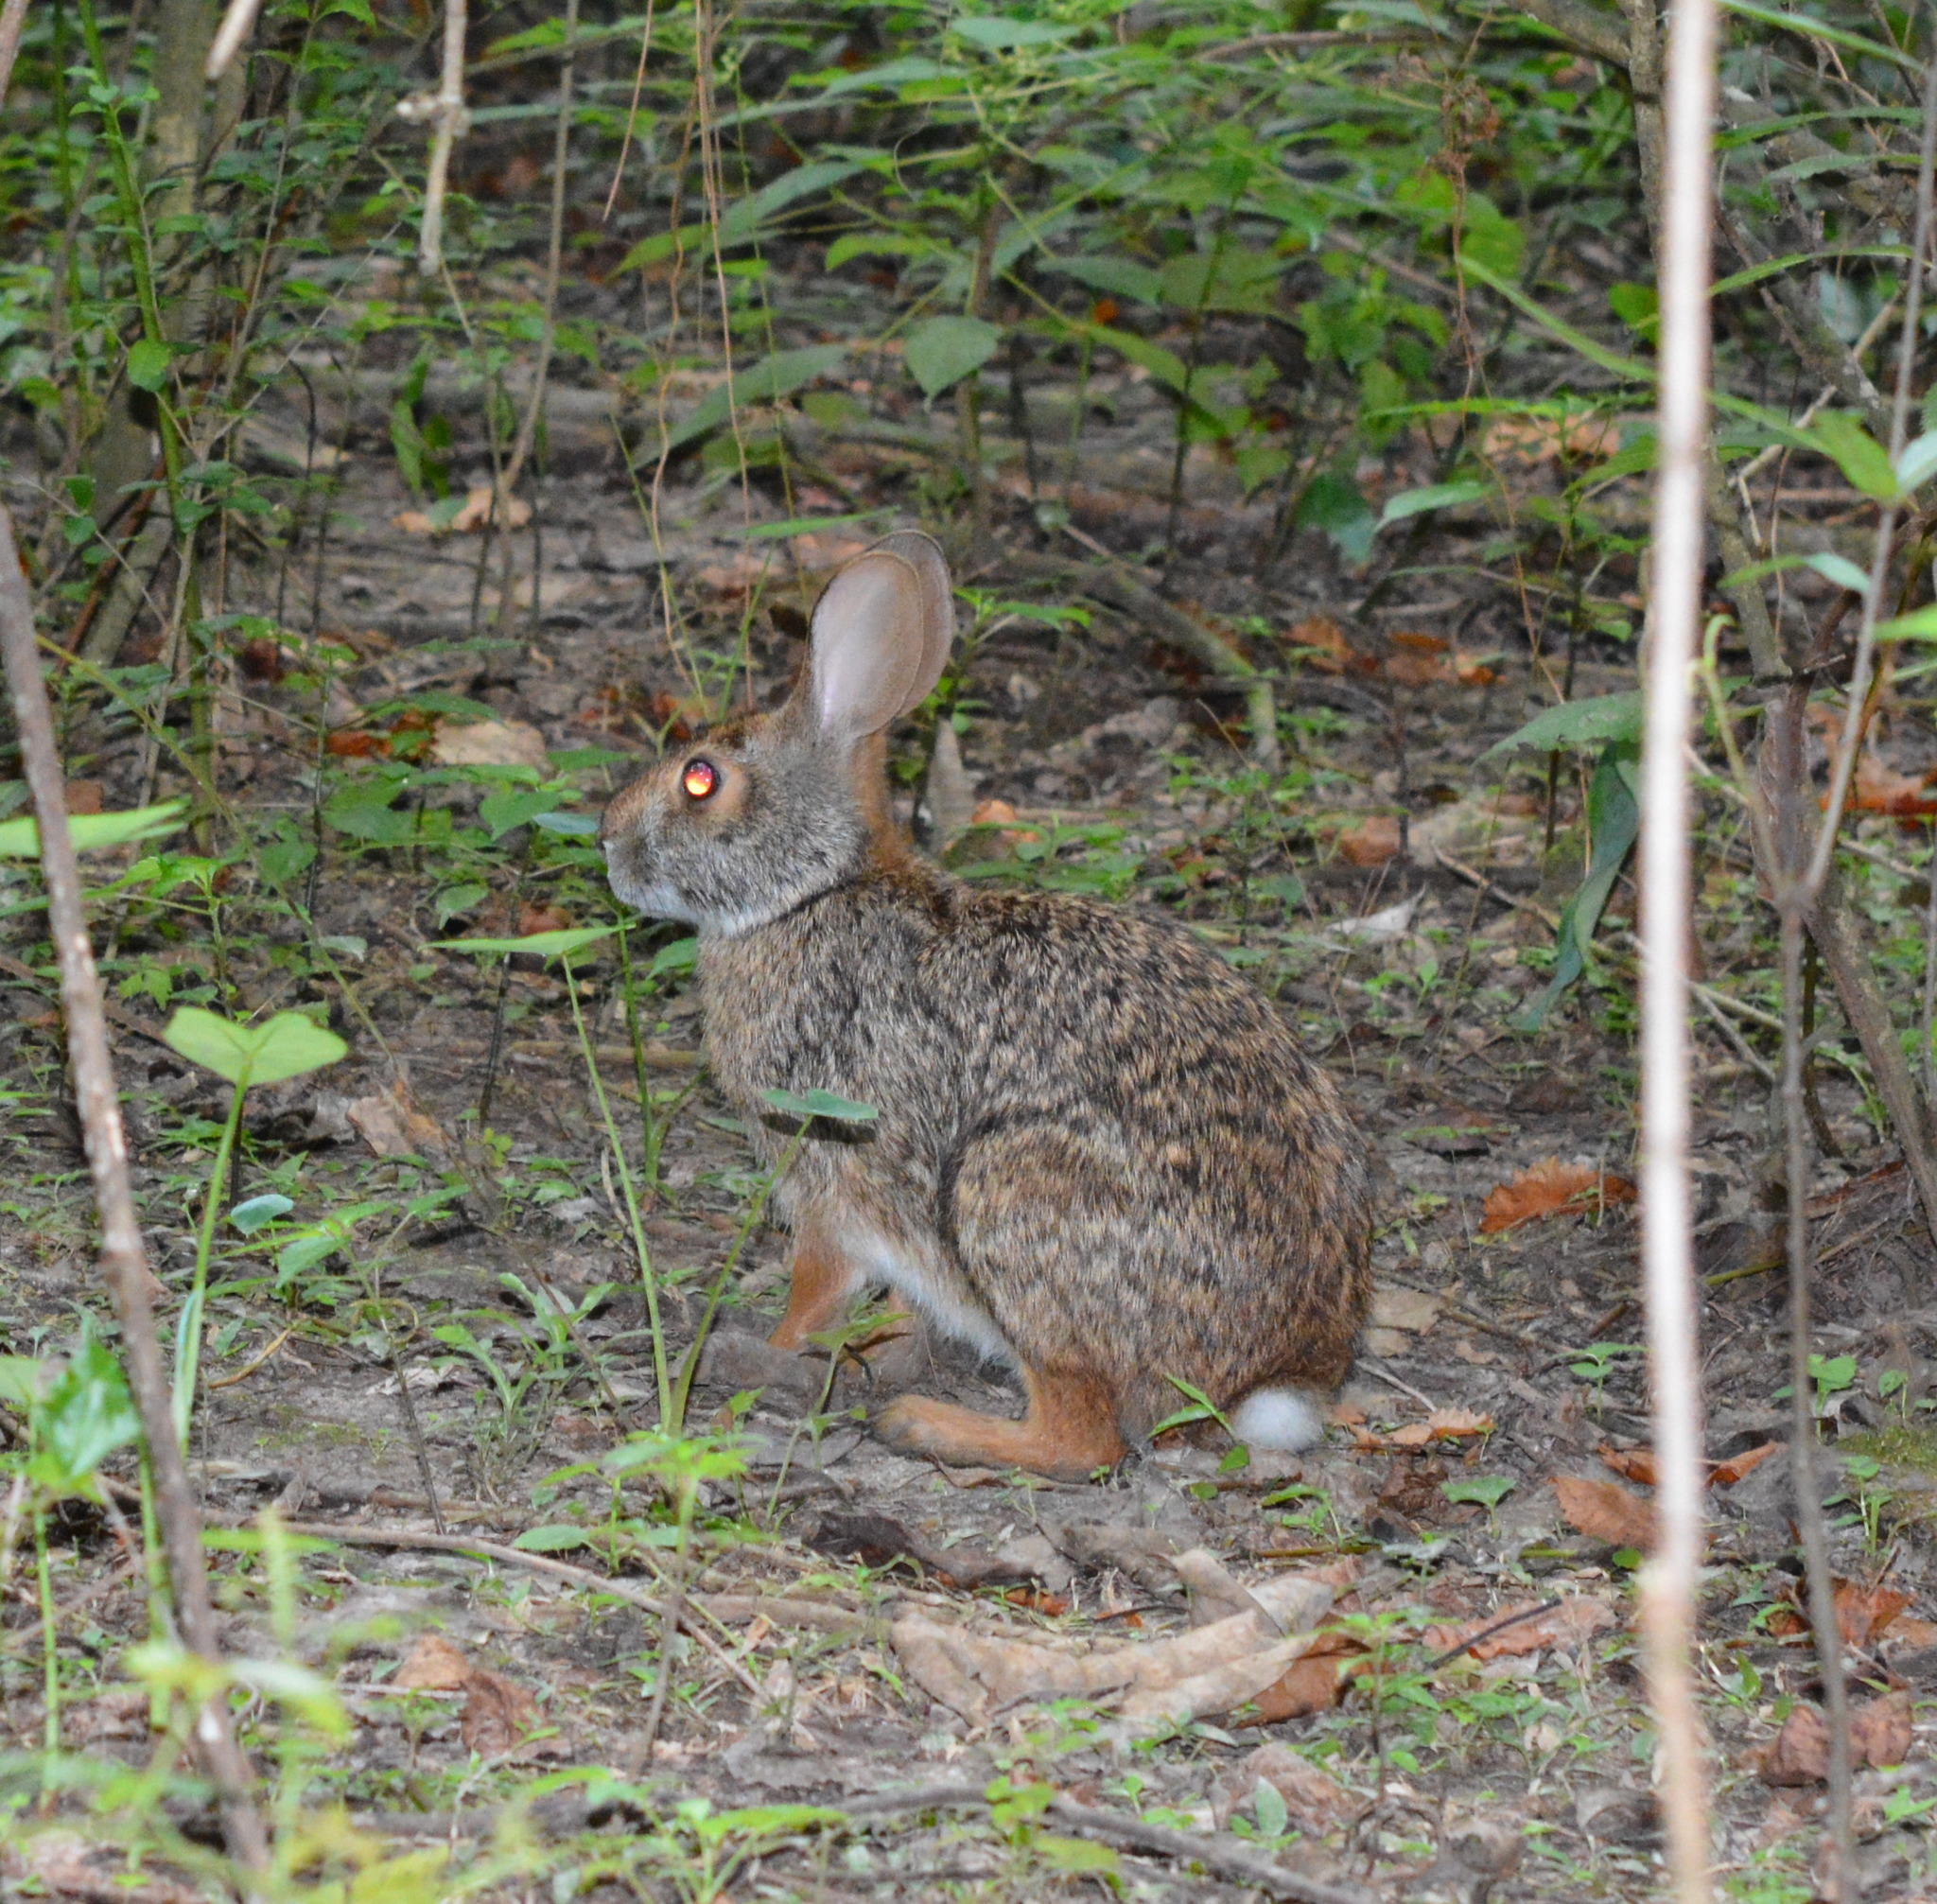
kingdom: Animalia
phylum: Chordata
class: Mammalia
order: Lagomorpha
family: Leporidae
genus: Sylvilagus
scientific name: Sylvilagus aquaticus
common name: Swamp rabbit
